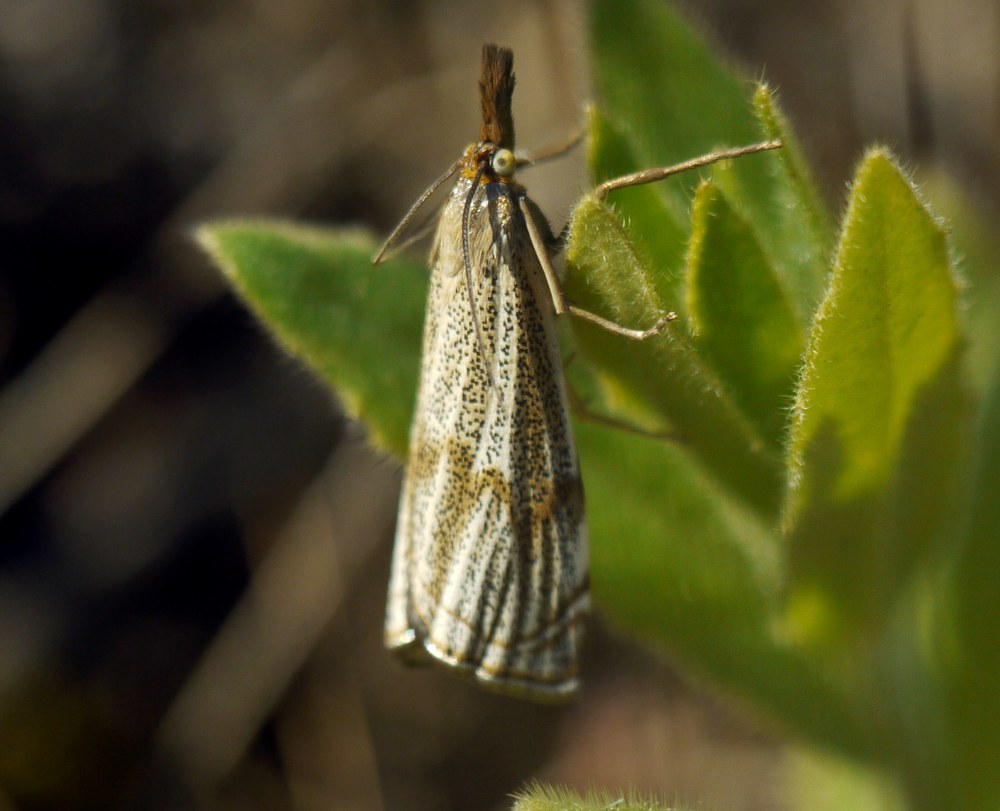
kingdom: Animalia
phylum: Arthropoda
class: Insecta
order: Lepidoptera
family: Crambidae
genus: Thisanotia
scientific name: Thisanotia chrysonuchella
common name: Powdered grass-veneer
